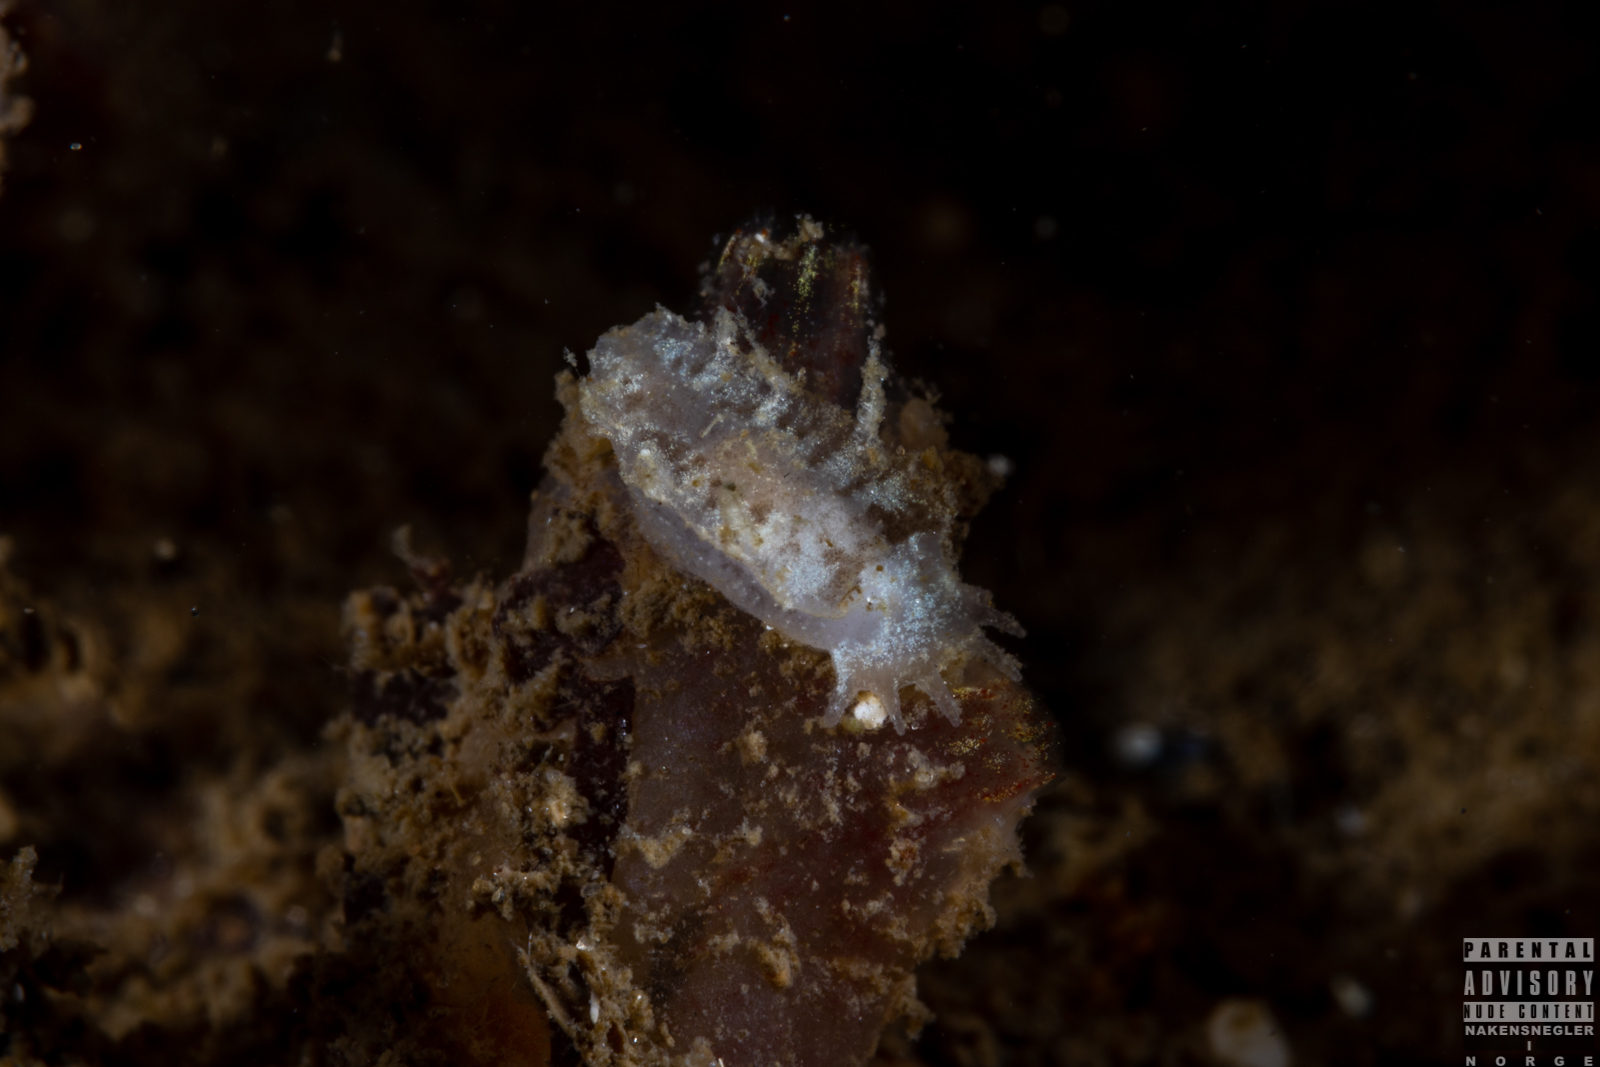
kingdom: Animalia
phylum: Mollusca
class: Gastropoda
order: Nudibranchia
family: Tritoniidae
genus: Duvaucelia
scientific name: Duvaucelia plebeia
